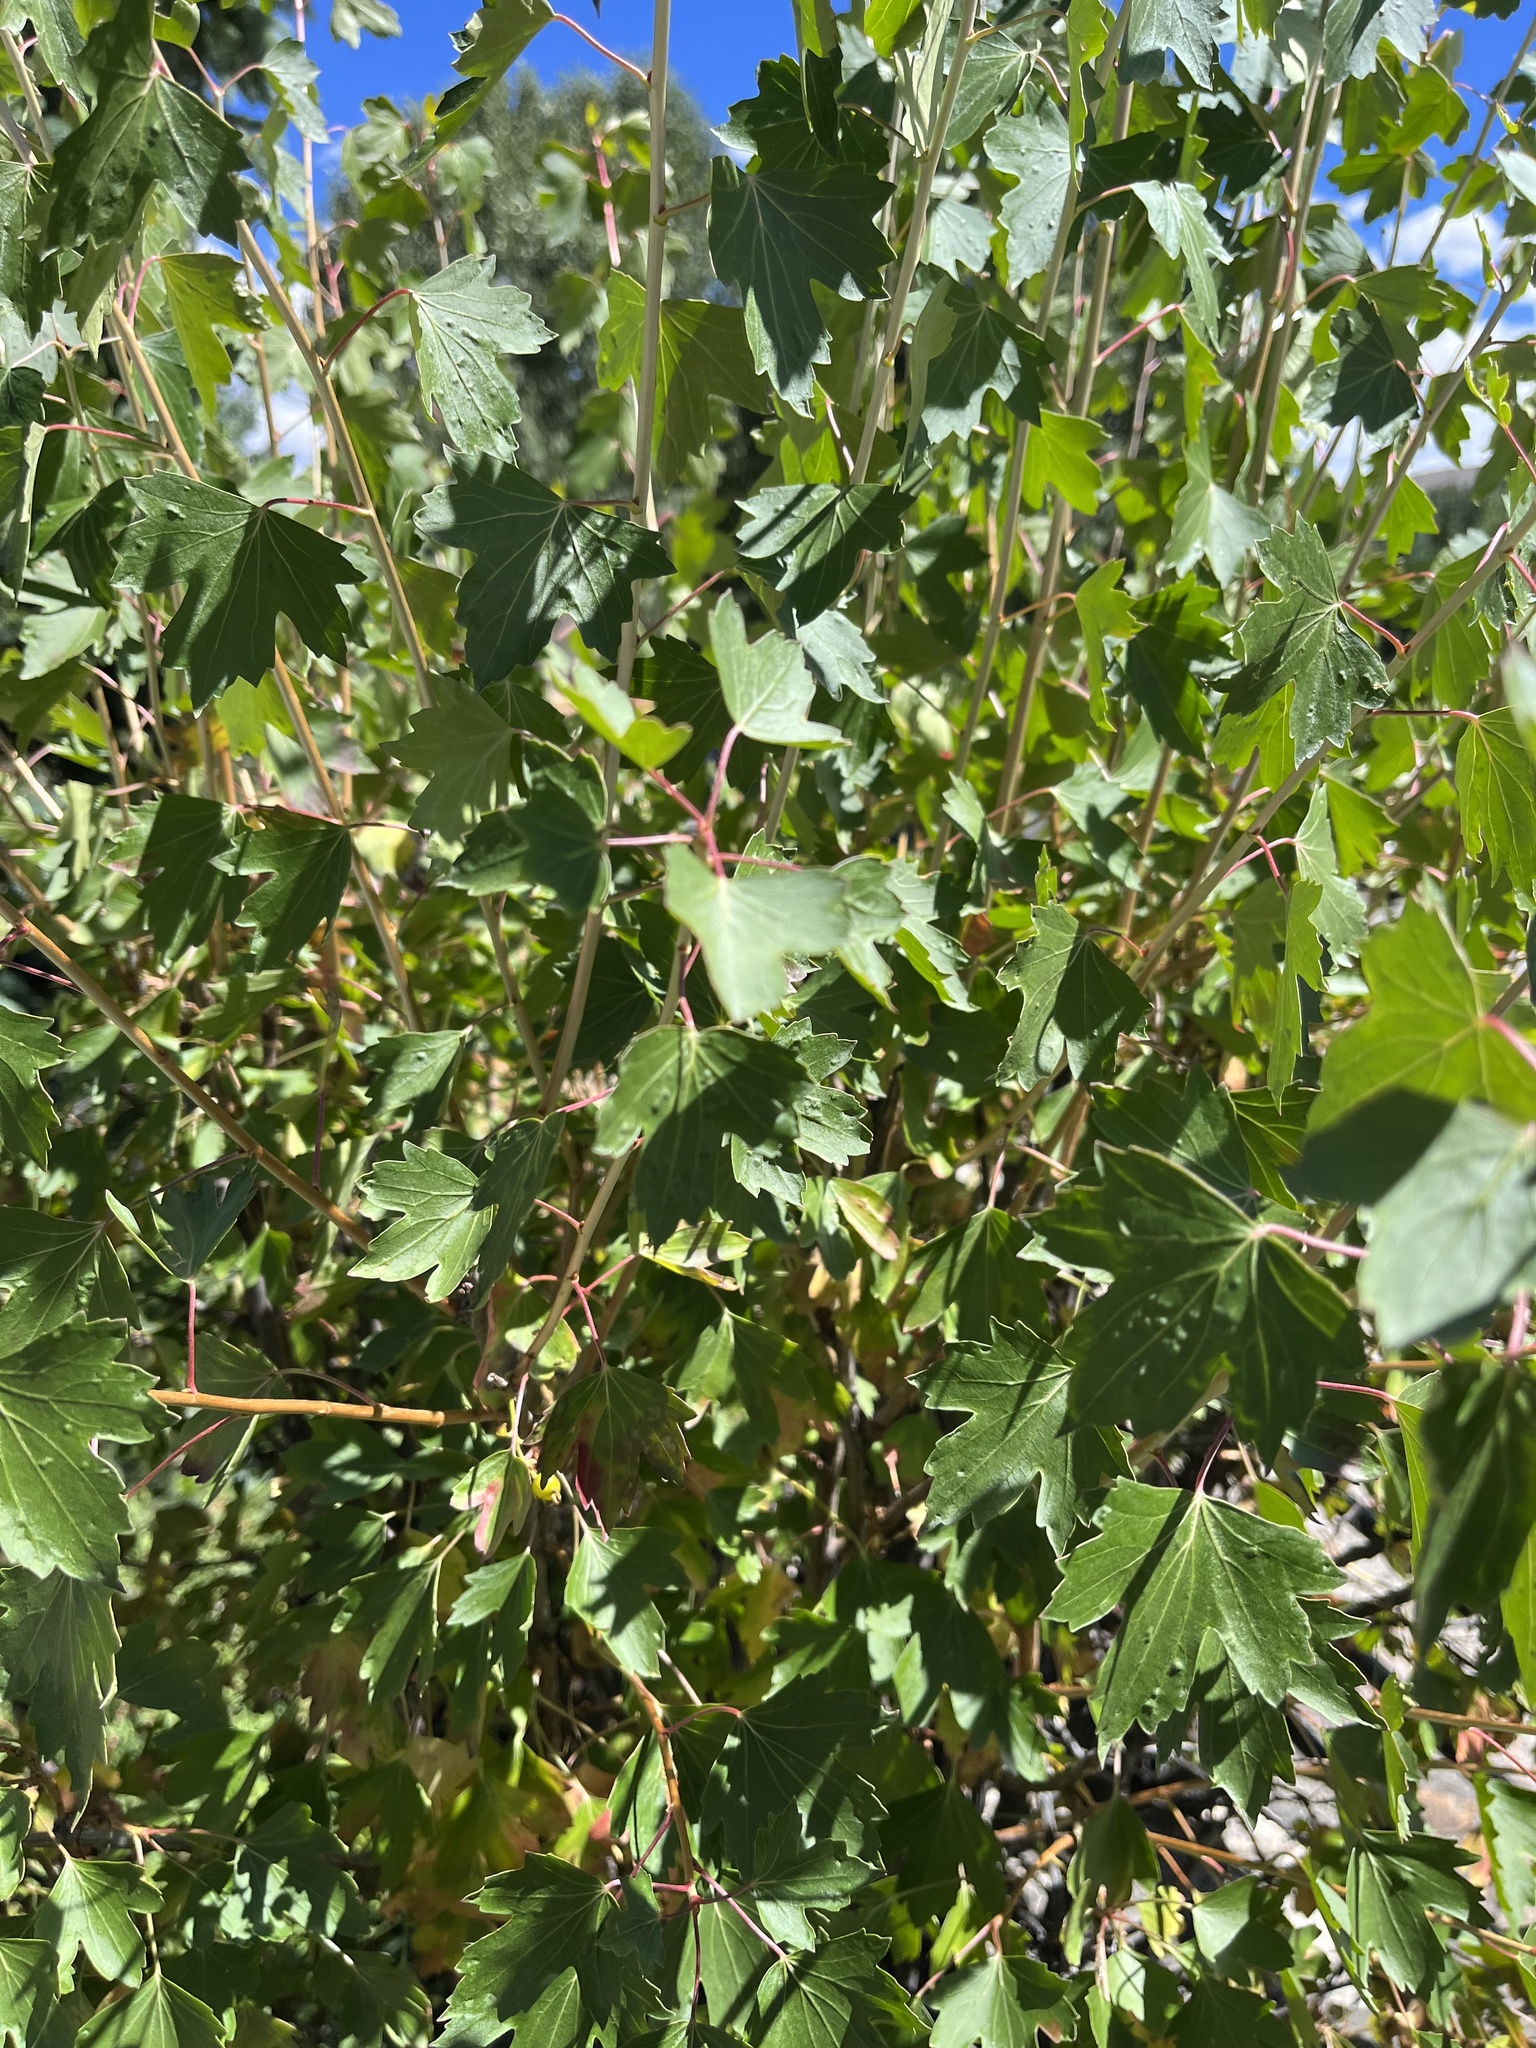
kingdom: Plantae
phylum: Tracheophyta
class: Magnoliopsida
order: Saxifragales
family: Grossulariaceae
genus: Ribes
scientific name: Ribes aureum
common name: Golden currant
